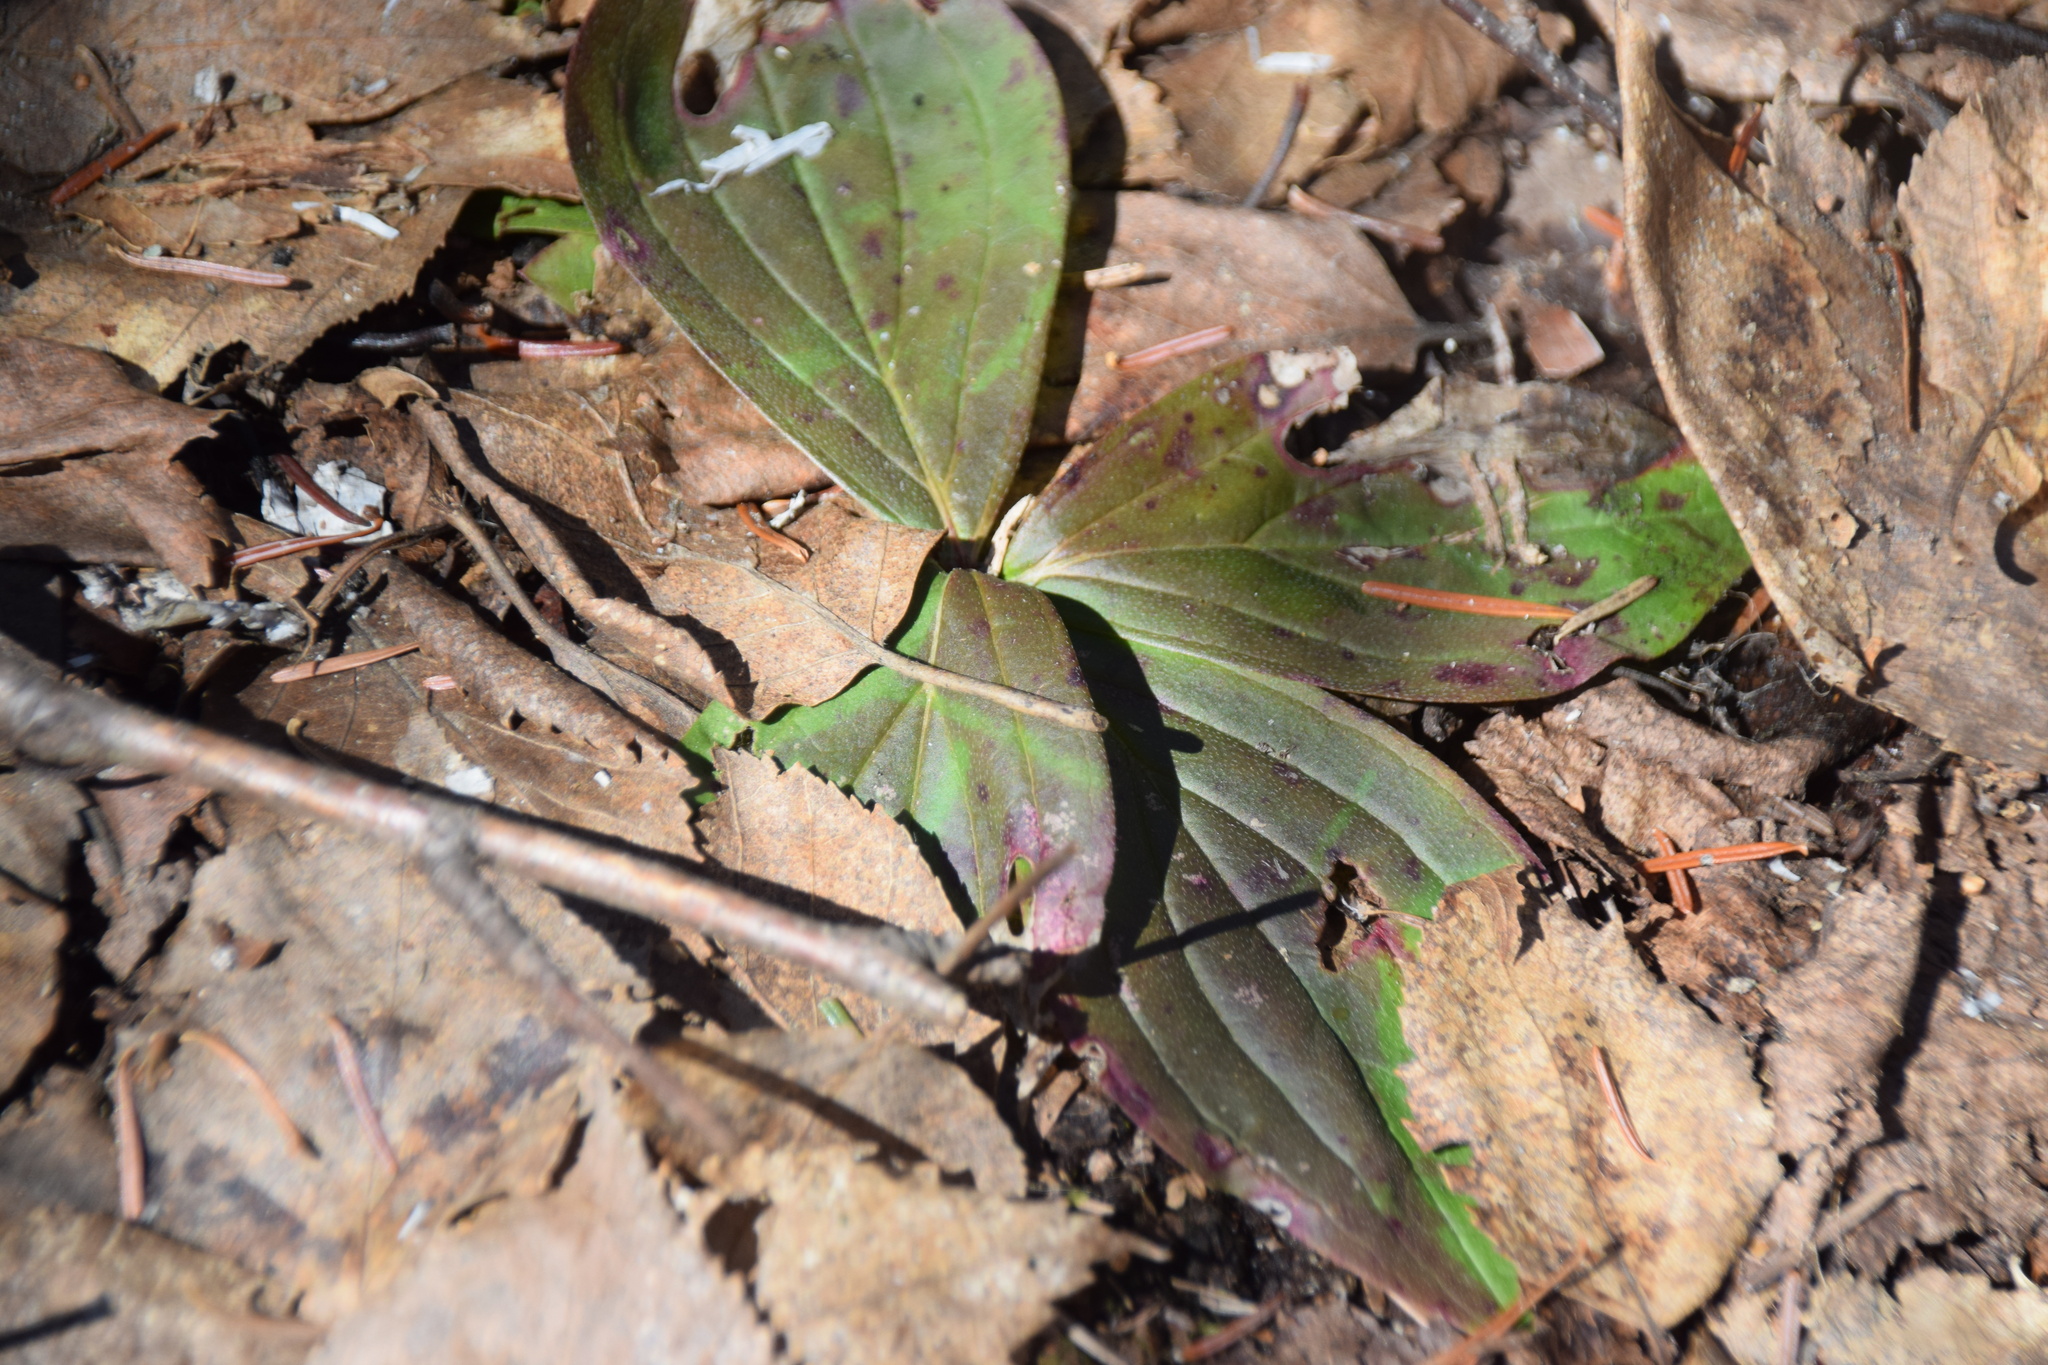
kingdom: Plantae
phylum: Tracheophyta
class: Magnoliopsida
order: Cornales
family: Cornaceae
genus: Cornus
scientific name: Cornus canadensis
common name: Creeping dogwood
